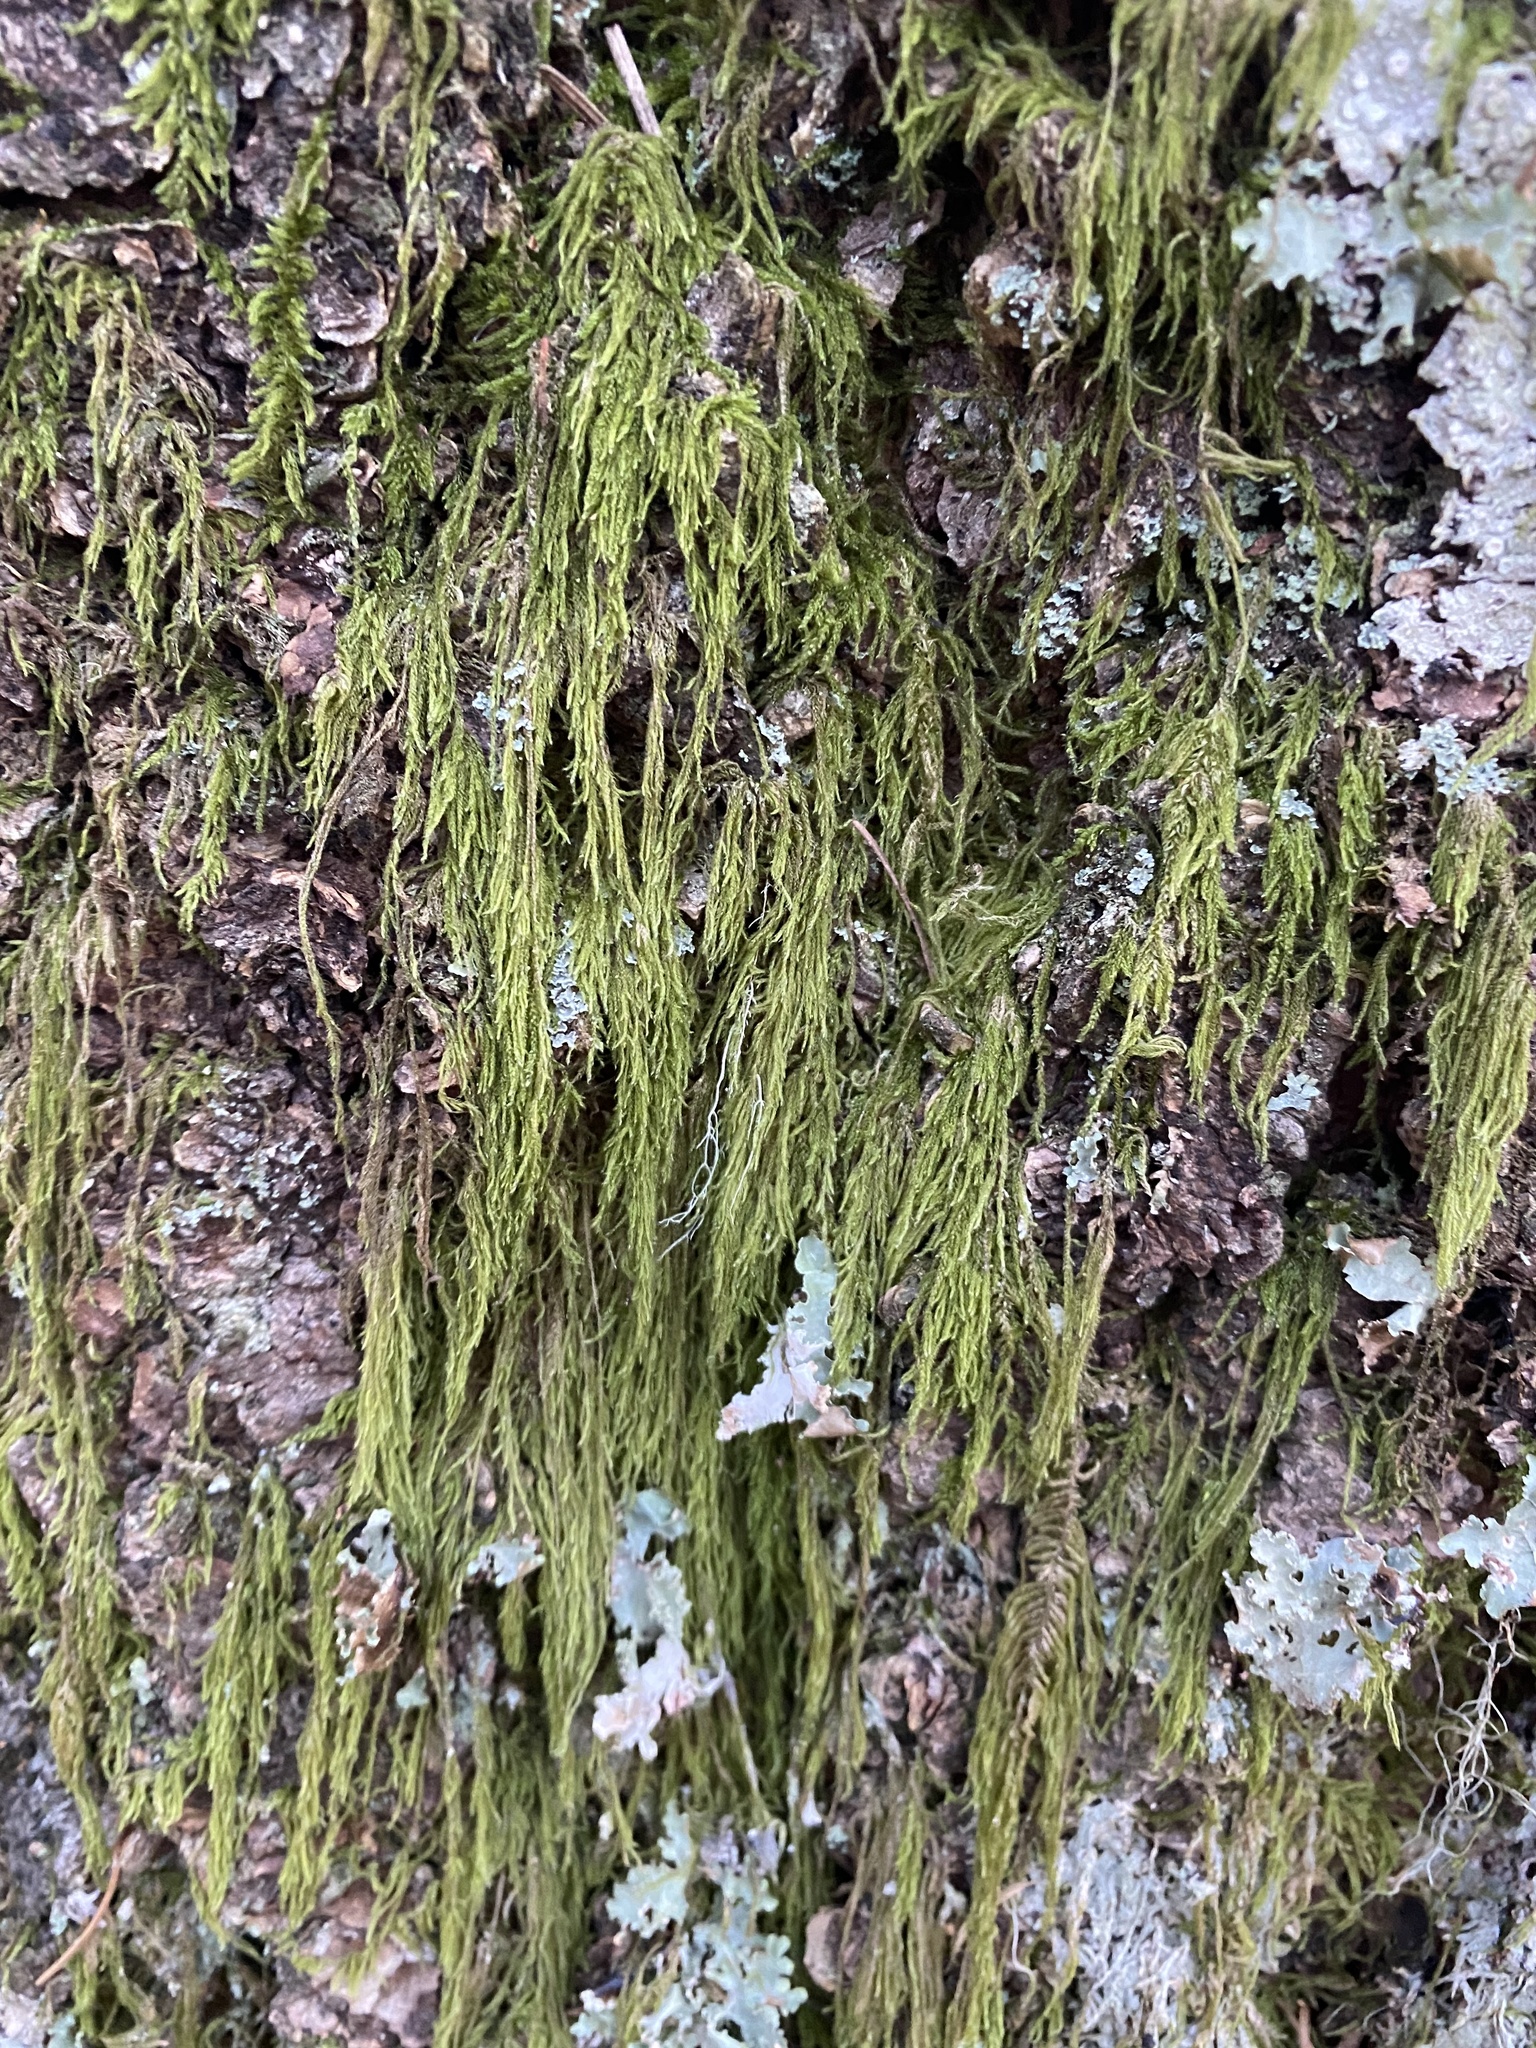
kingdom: Plantae
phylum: Bryophyta
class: Bryopsida
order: Hypnales
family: Lembophyllaceae
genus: Pseudisothecium
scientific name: Pseudisothecium stoloniferum
